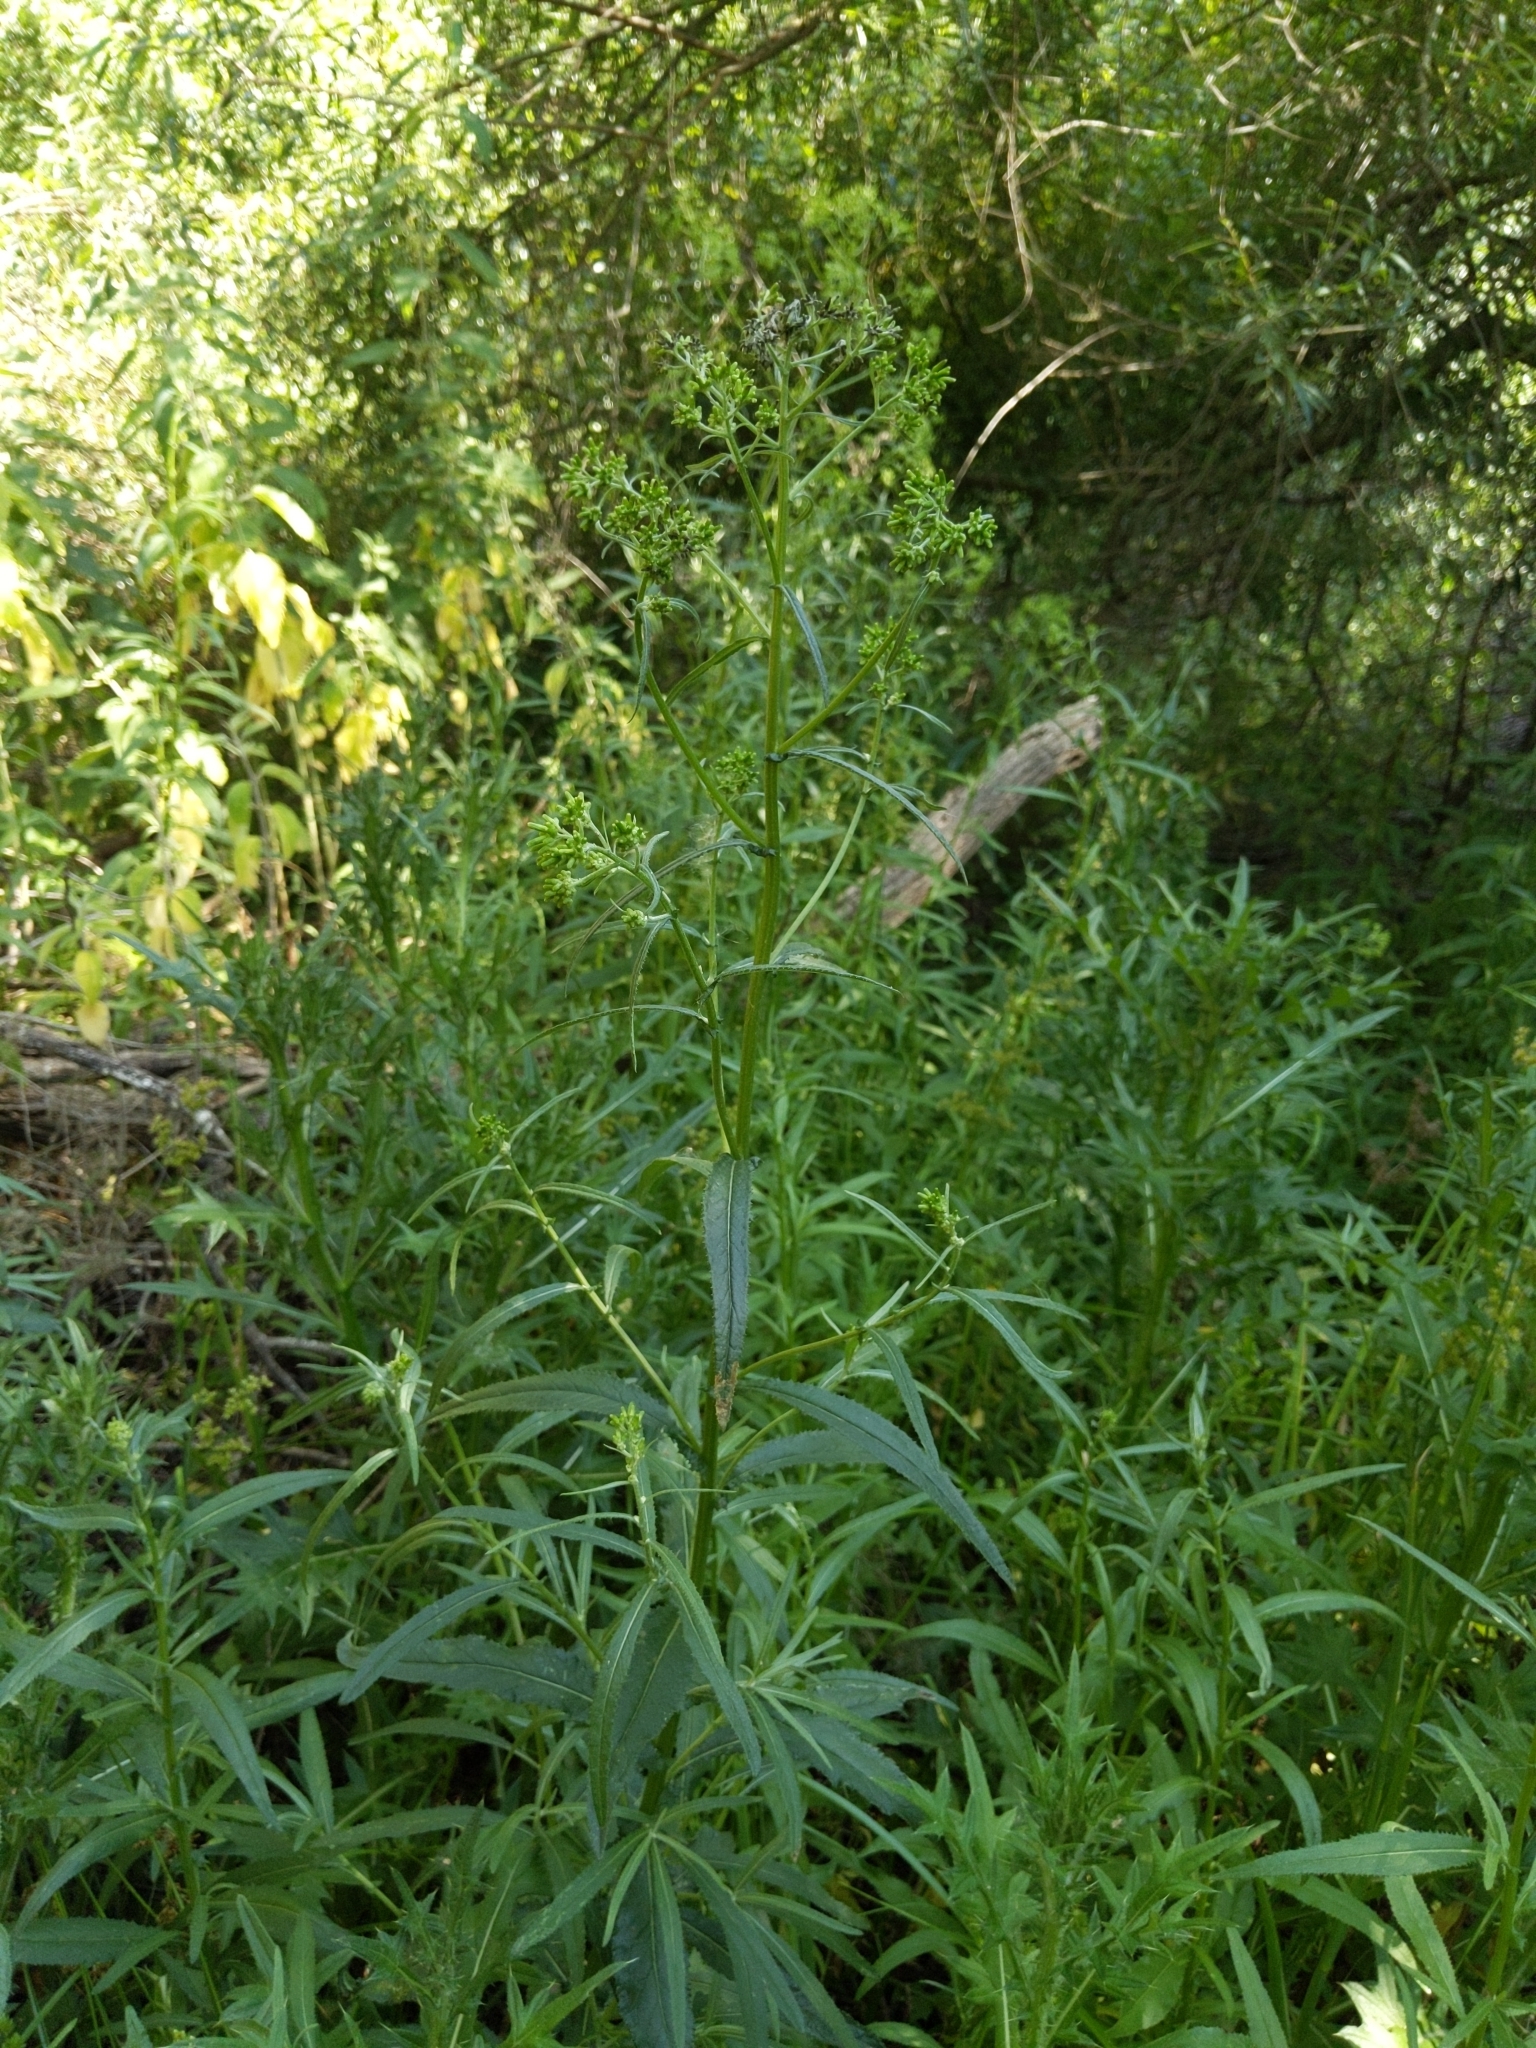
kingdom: Plantae
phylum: Tracheophyta
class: Magnoliopsida
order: Asterales
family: Asteraceae
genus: Senecio
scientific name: Senecio minimus
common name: Toothed fireweed
